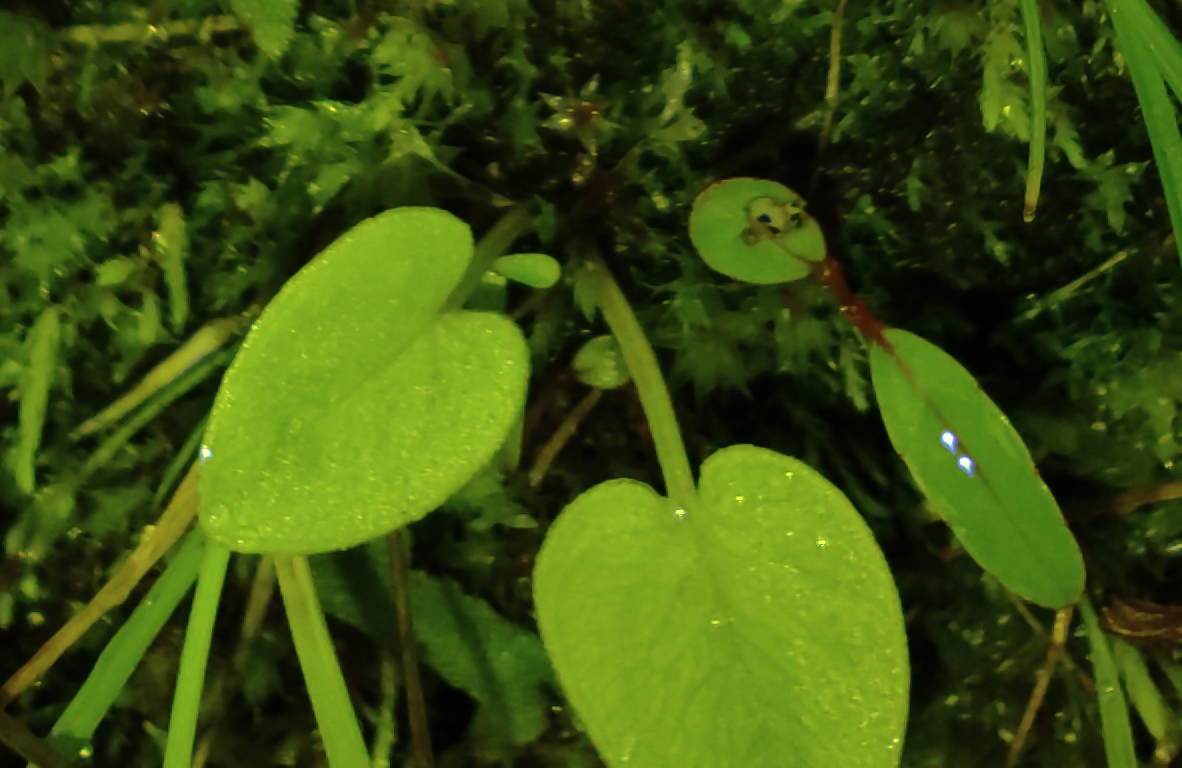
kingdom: Plantae
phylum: Tracheophyta
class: Magnoliopsida
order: Celastrales
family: Parnassiaceae
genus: Parnassia
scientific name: Parnassia palustris
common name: Grass-of-parnassus
